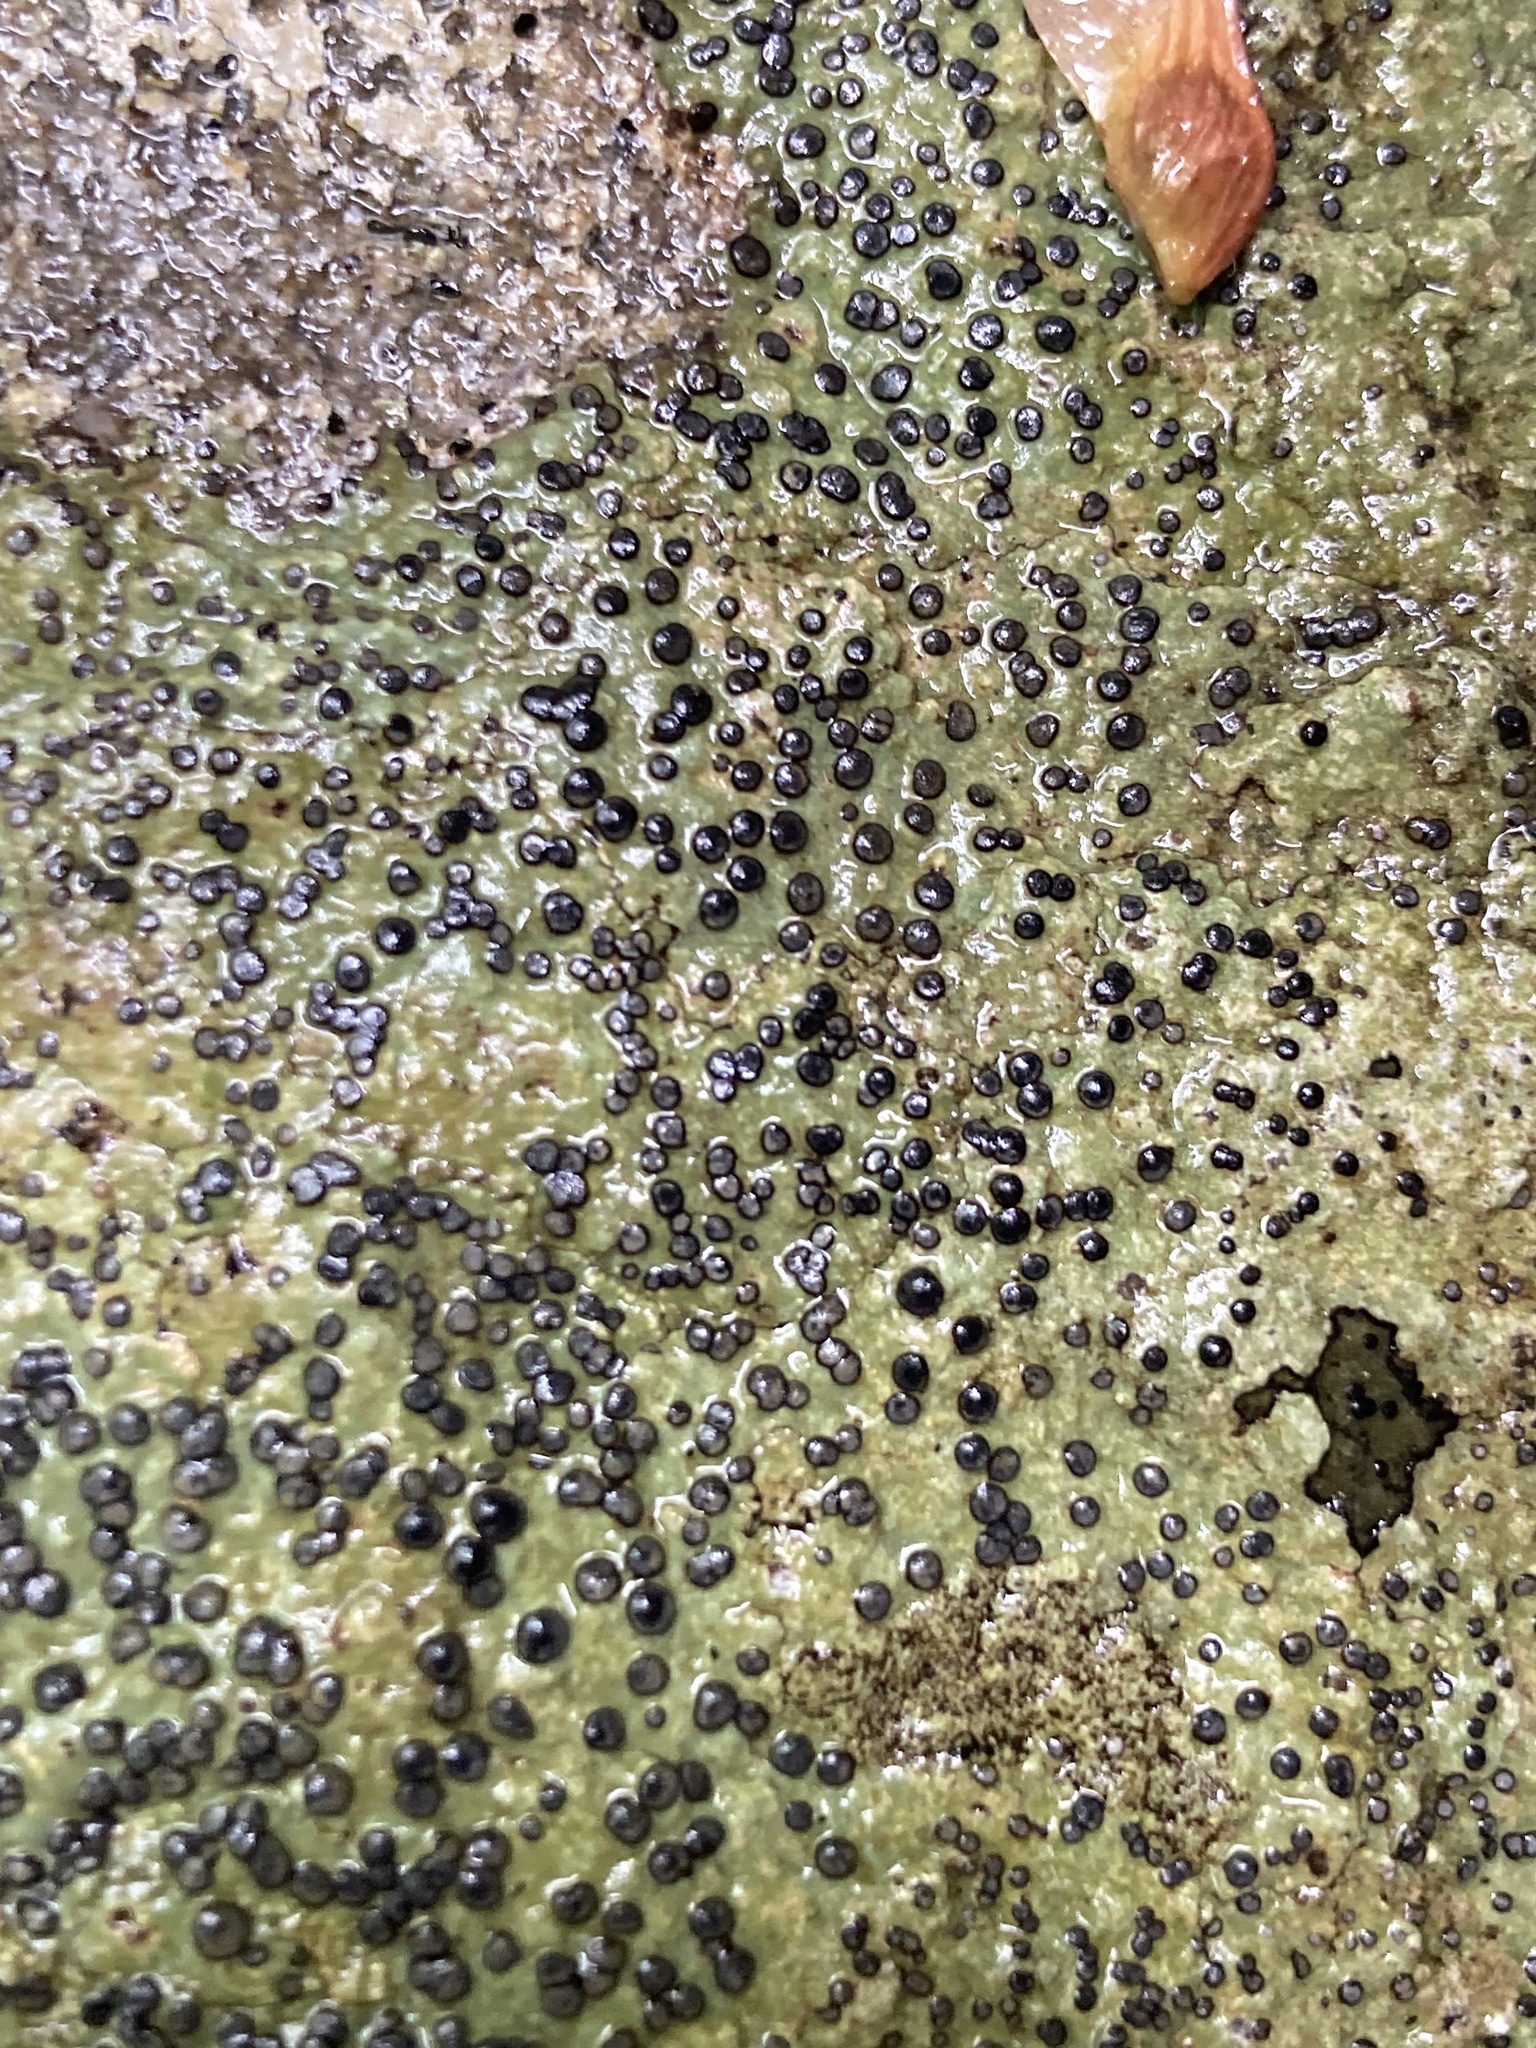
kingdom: Fungi
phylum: Ascomycota
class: Lecanoromycetes
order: Lecideales
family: Lecideaceae
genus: Porpidia
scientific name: Porpidia albocaerulescens
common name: Smokey-eyed boulder lichen
